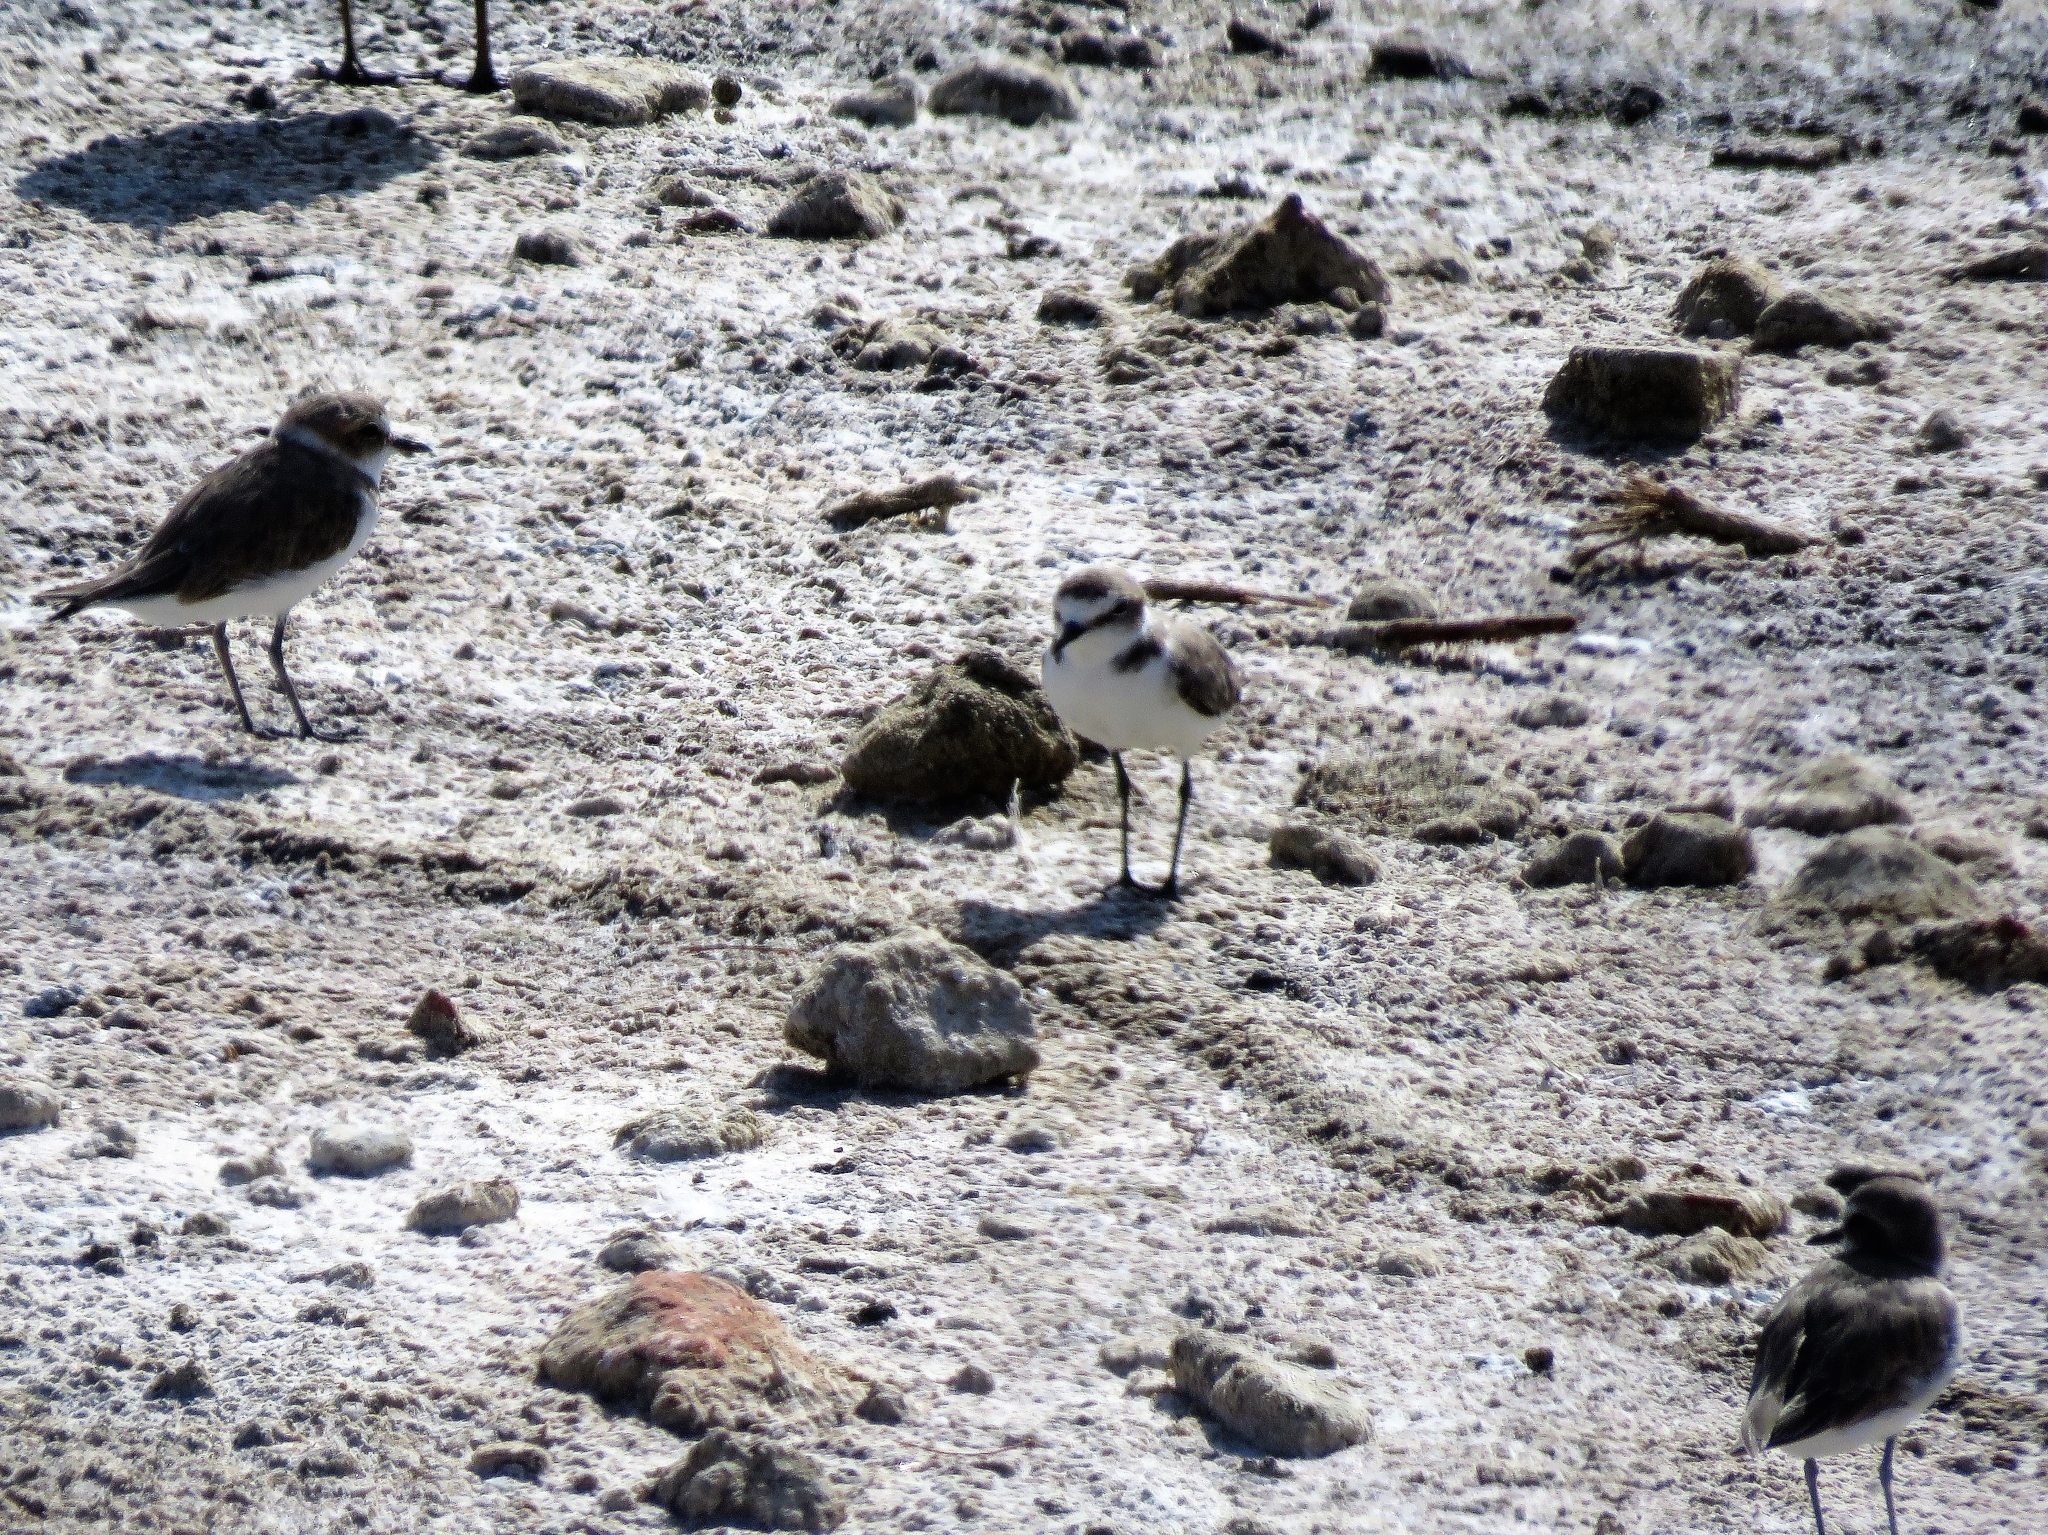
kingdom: Animalia
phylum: Chordata
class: Aves
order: Charadriiformes
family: Charadriidae
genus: Charadrius
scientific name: Charadrius alexandrinus
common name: Kentish plover
